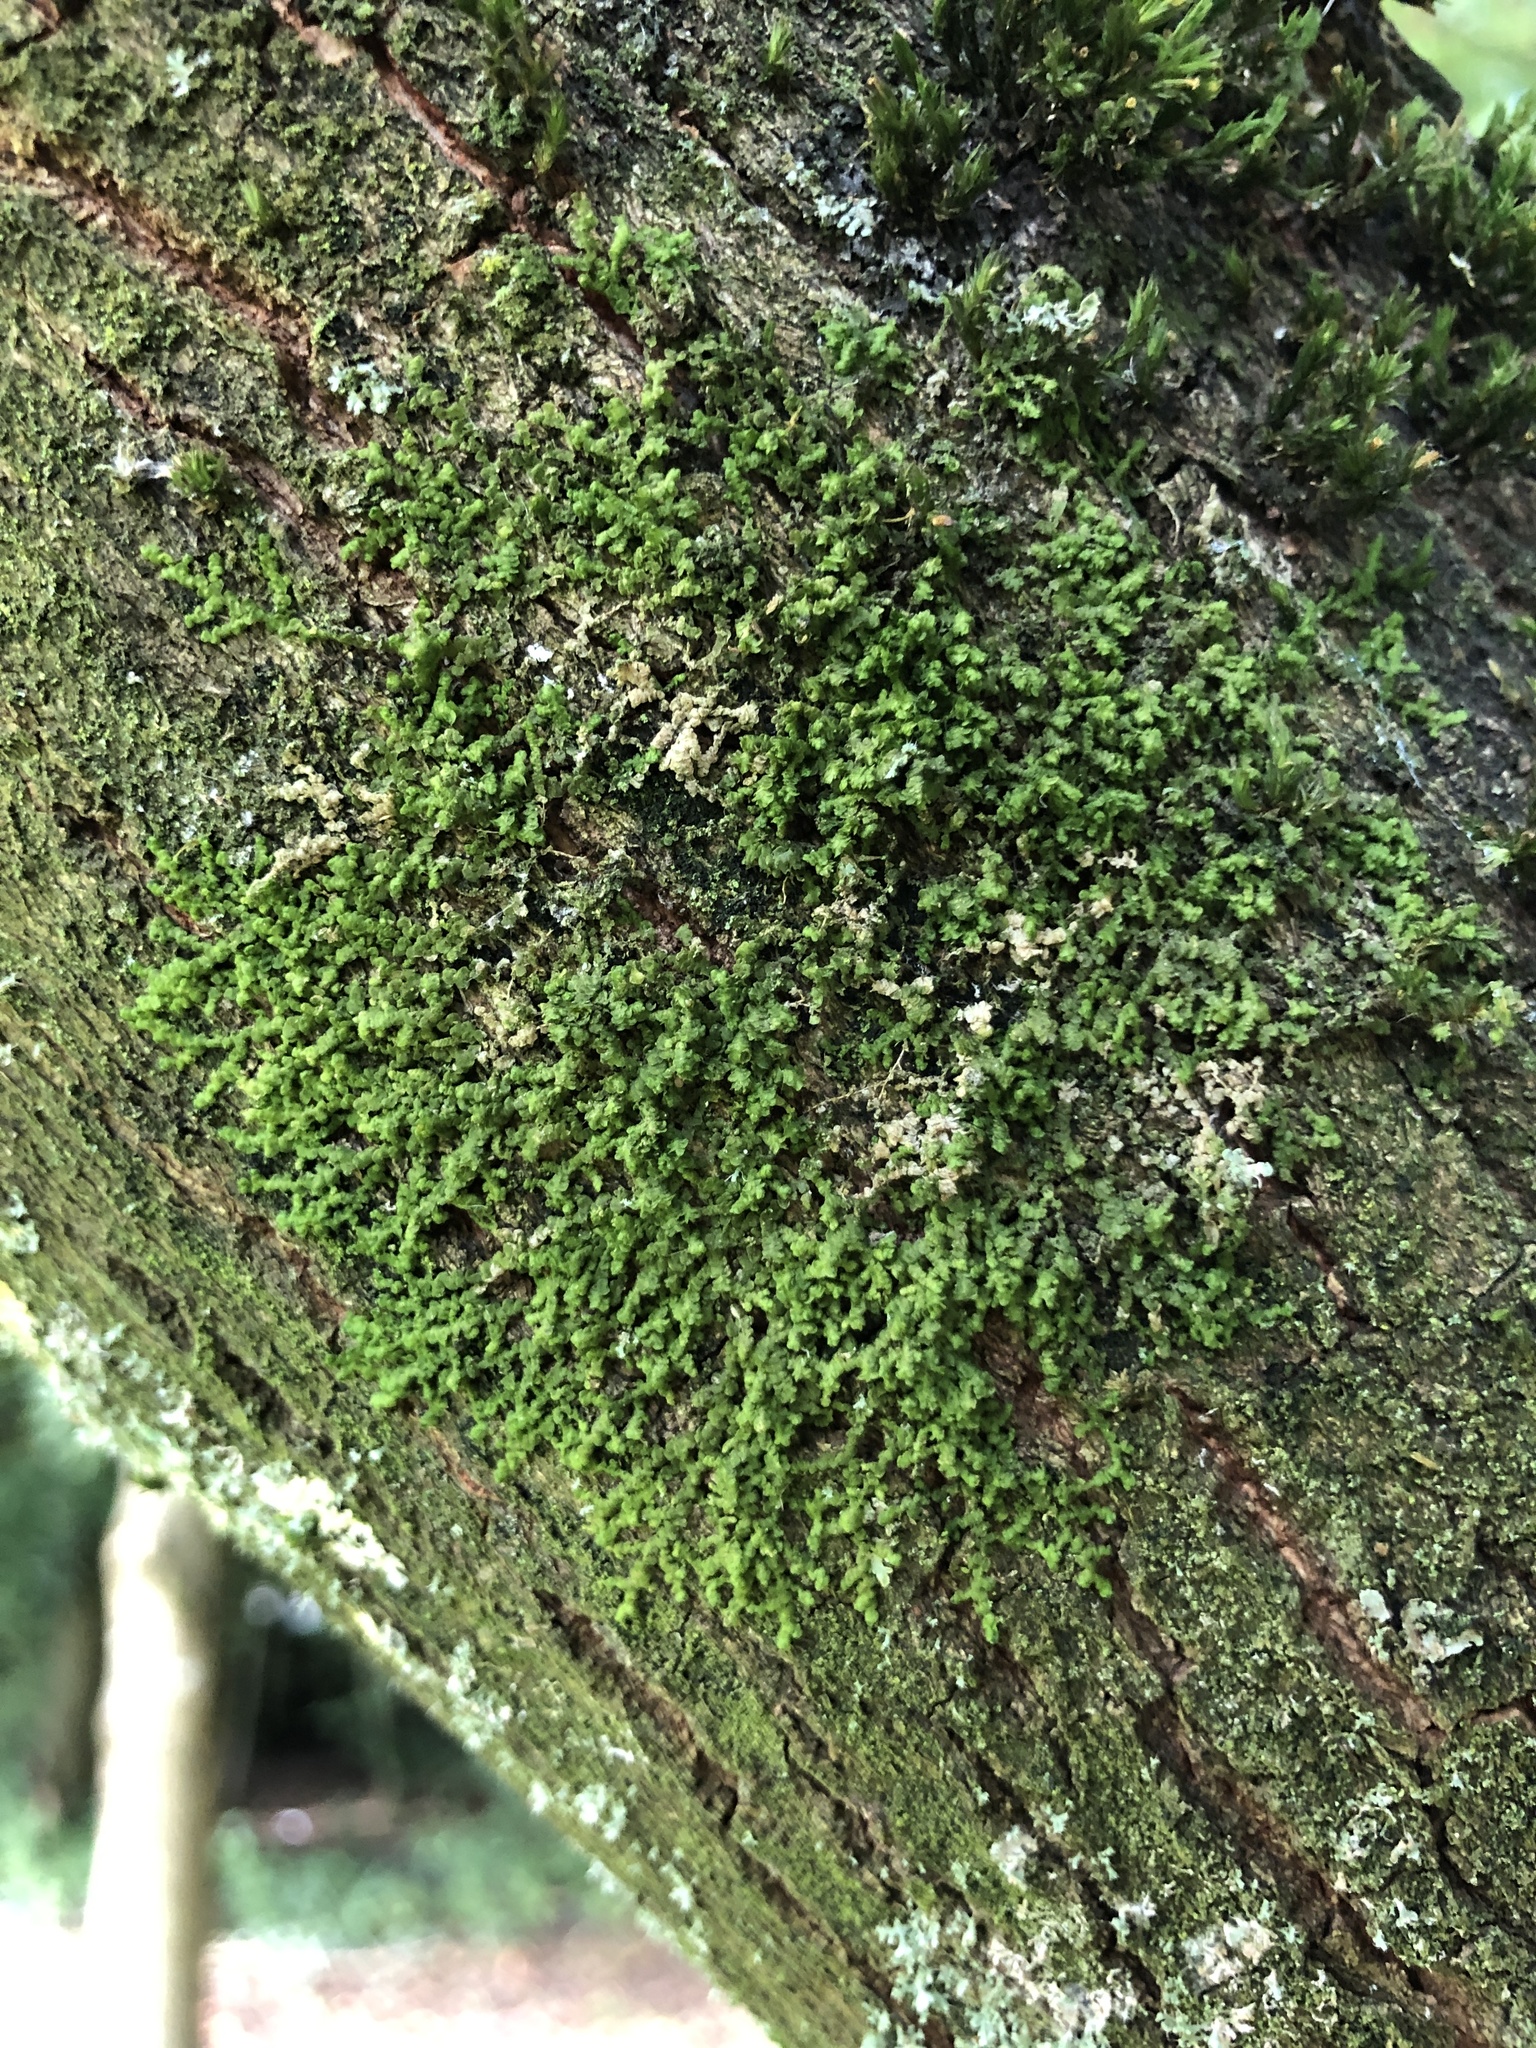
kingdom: Plantae
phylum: Marchantiophyta
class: Jungermanniopsida
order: Porellales
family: Frullaniaceae
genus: Frullania
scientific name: Frullania dilatata
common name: Dilated scalewort
